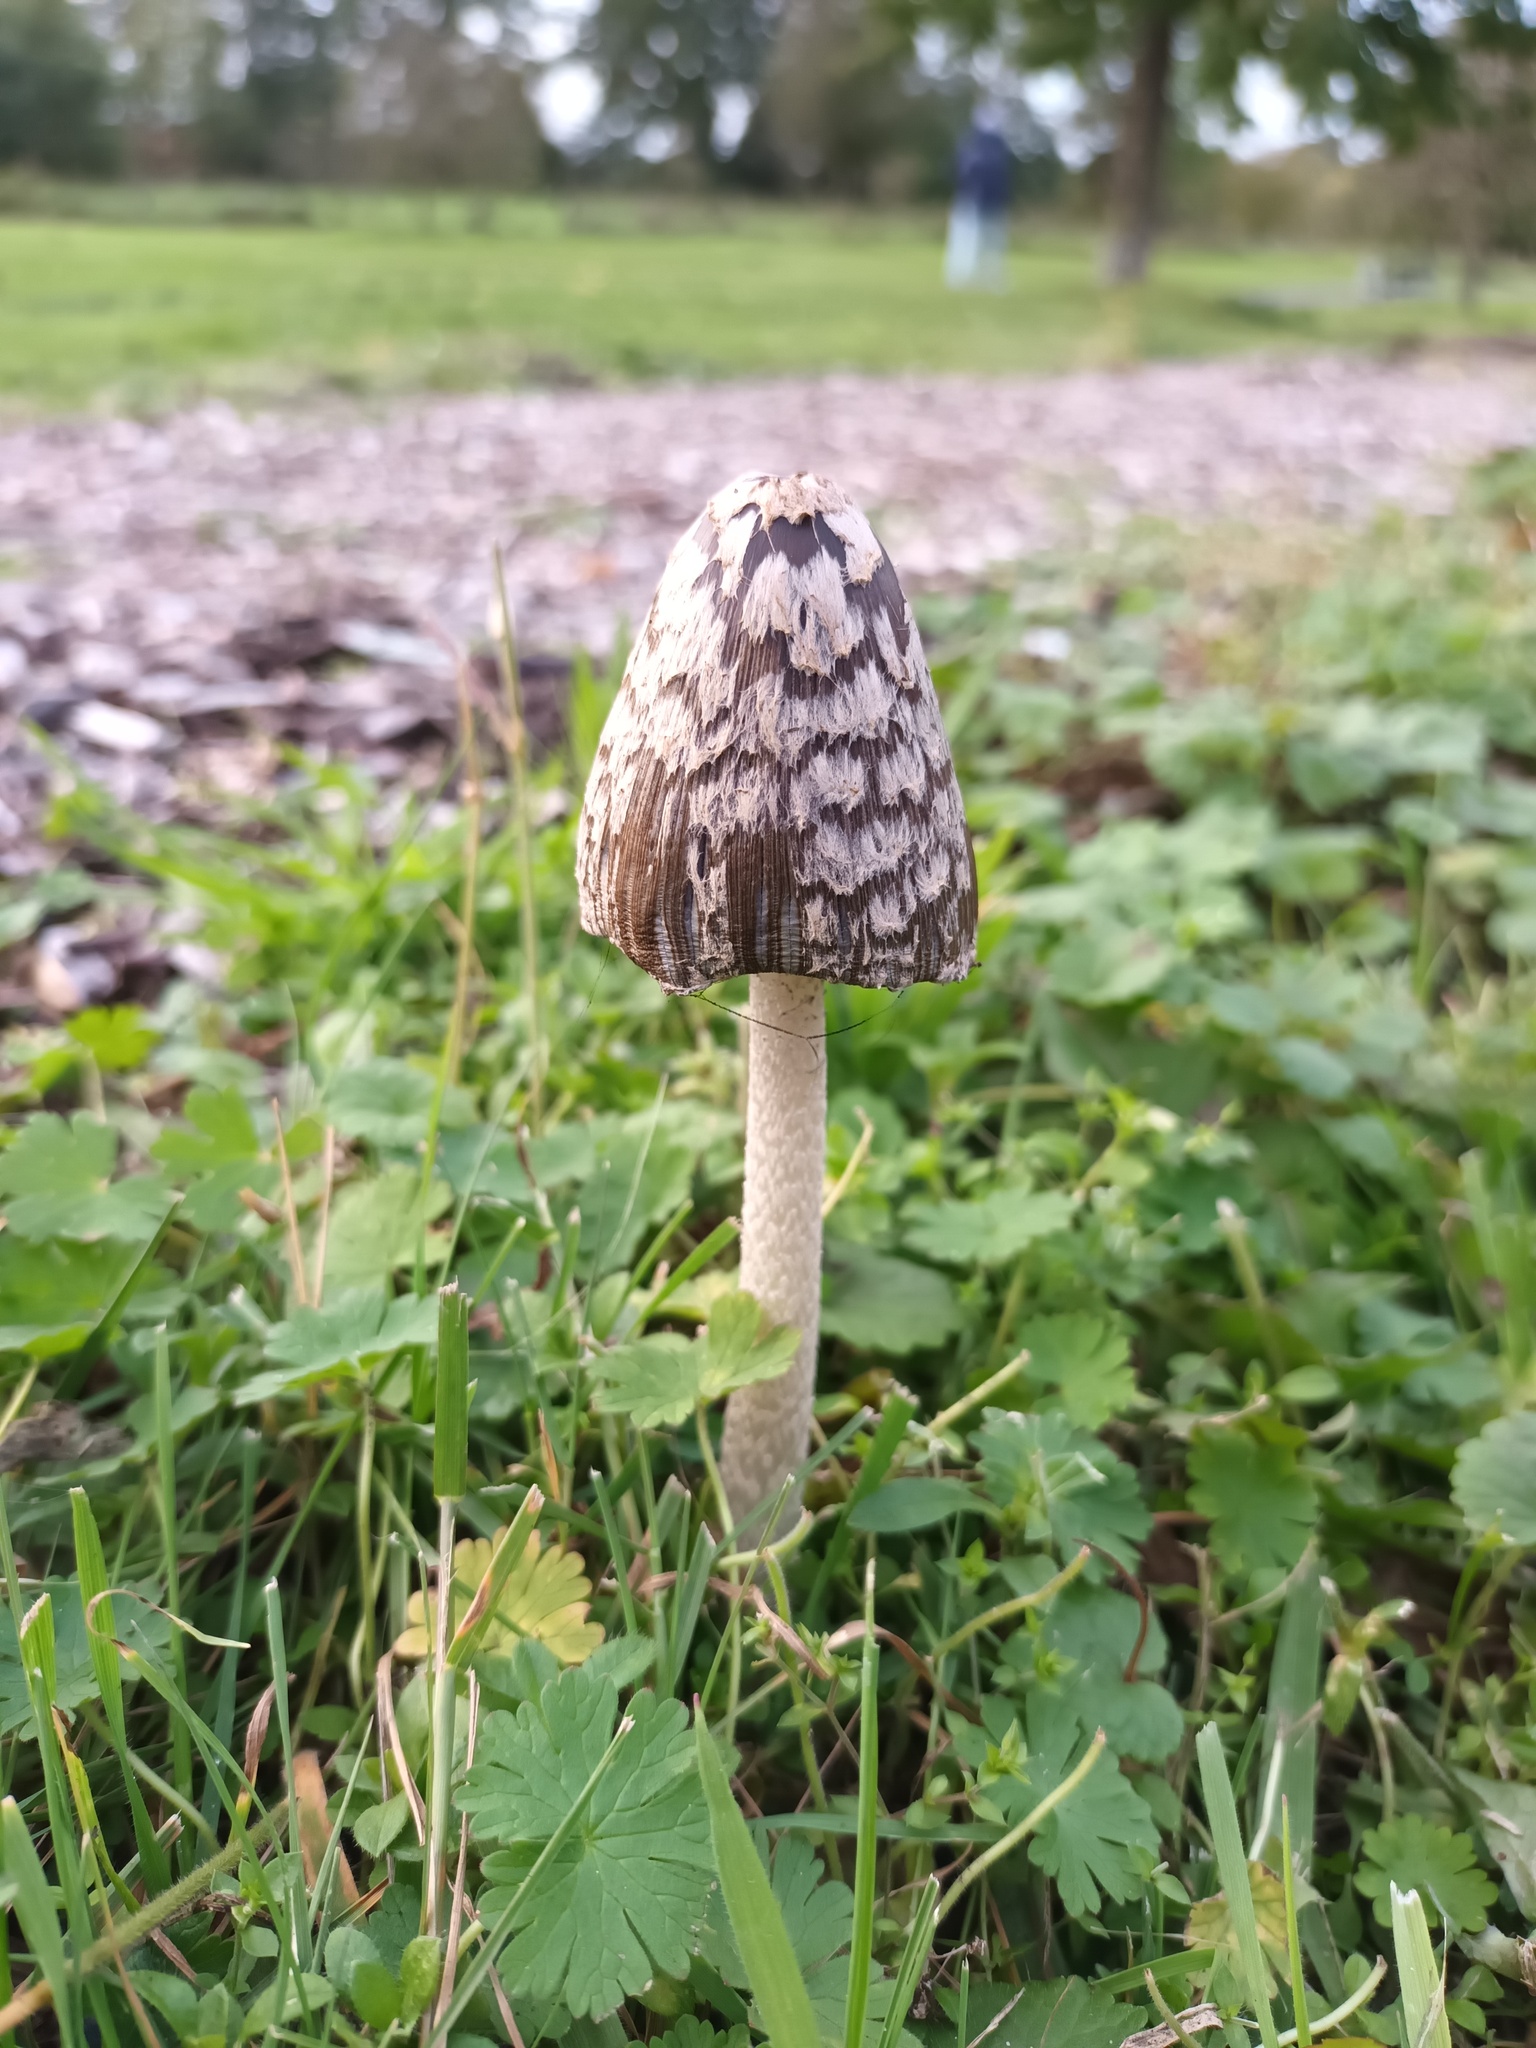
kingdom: Fungi
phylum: Basidiomycota
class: Agaricomycetes
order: Agaricales
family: Psathyrellaceae
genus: Coprinopsis
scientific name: Coprinopsis picacea
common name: Magpie inkcap
